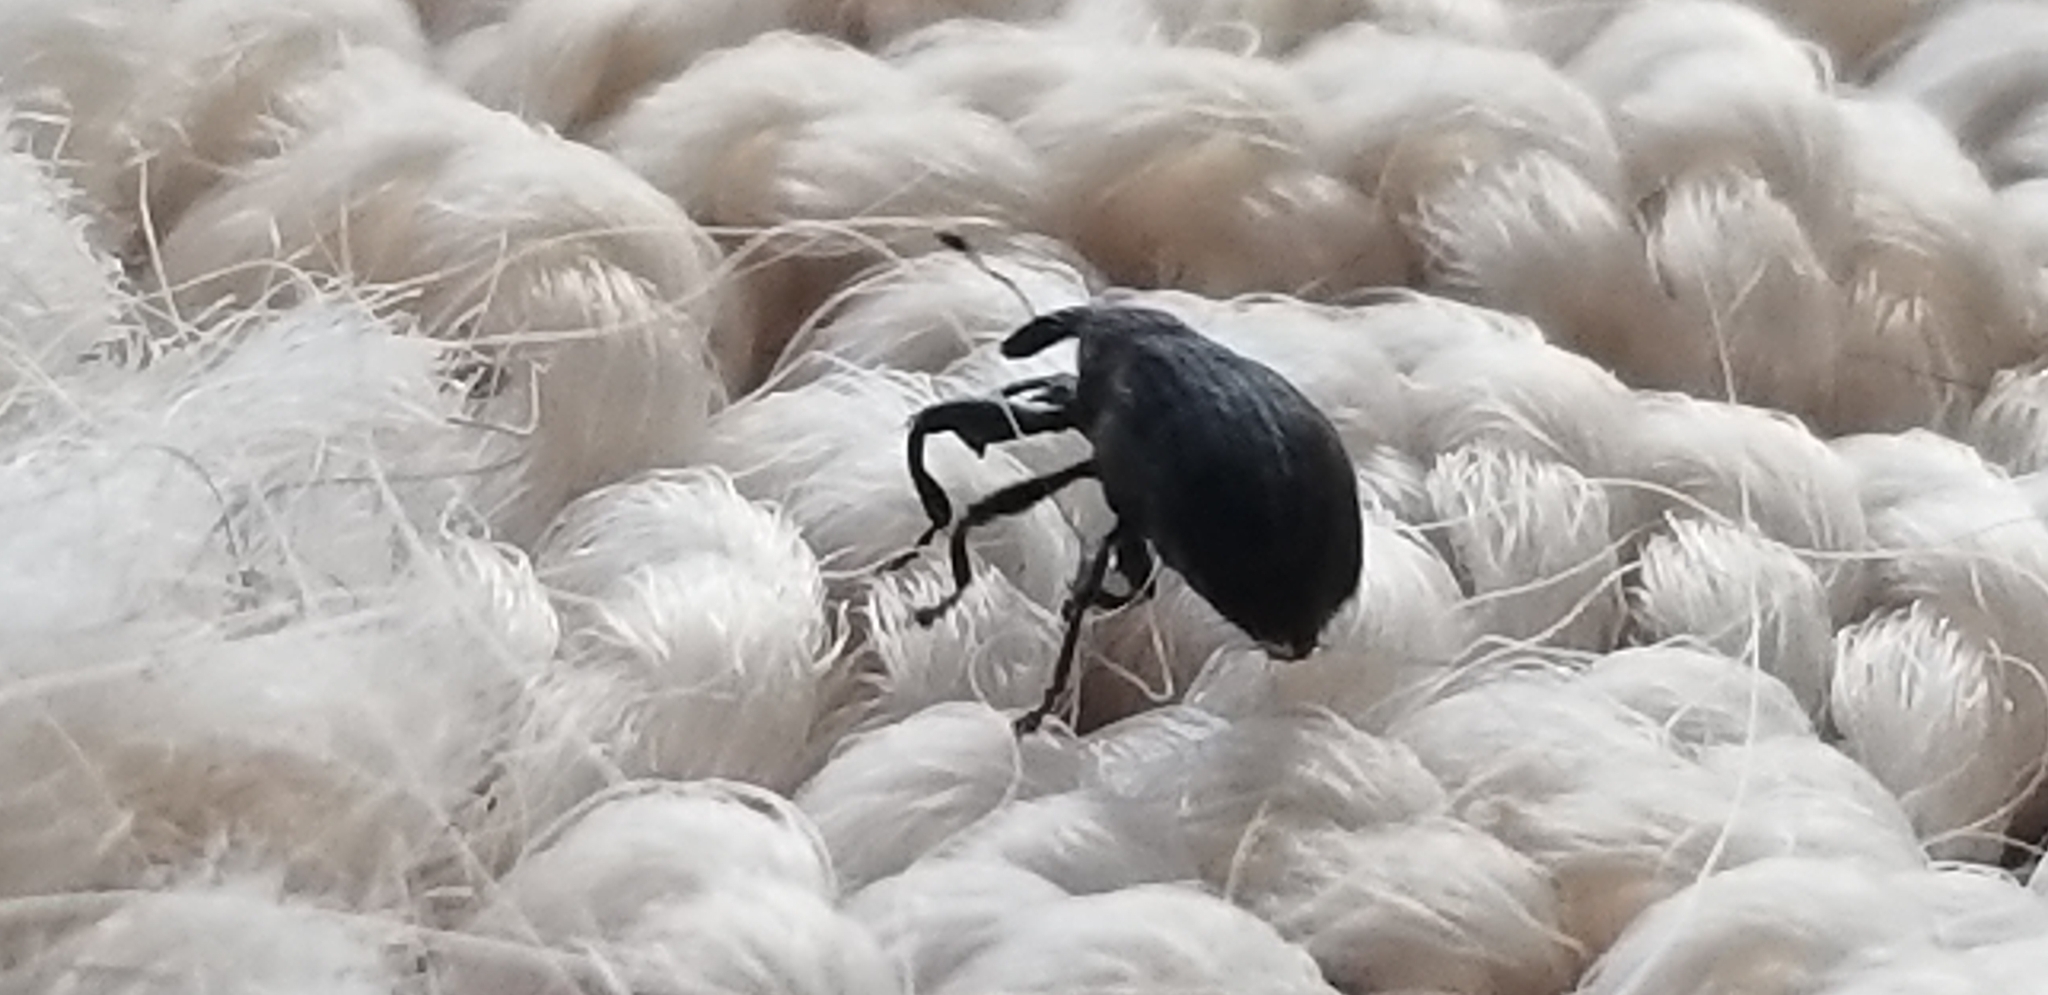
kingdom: Animalia
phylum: Arthropoda
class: Insecta
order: Coleoptera
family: Curculionidae
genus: Odontopus
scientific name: Odontopus calceatus
